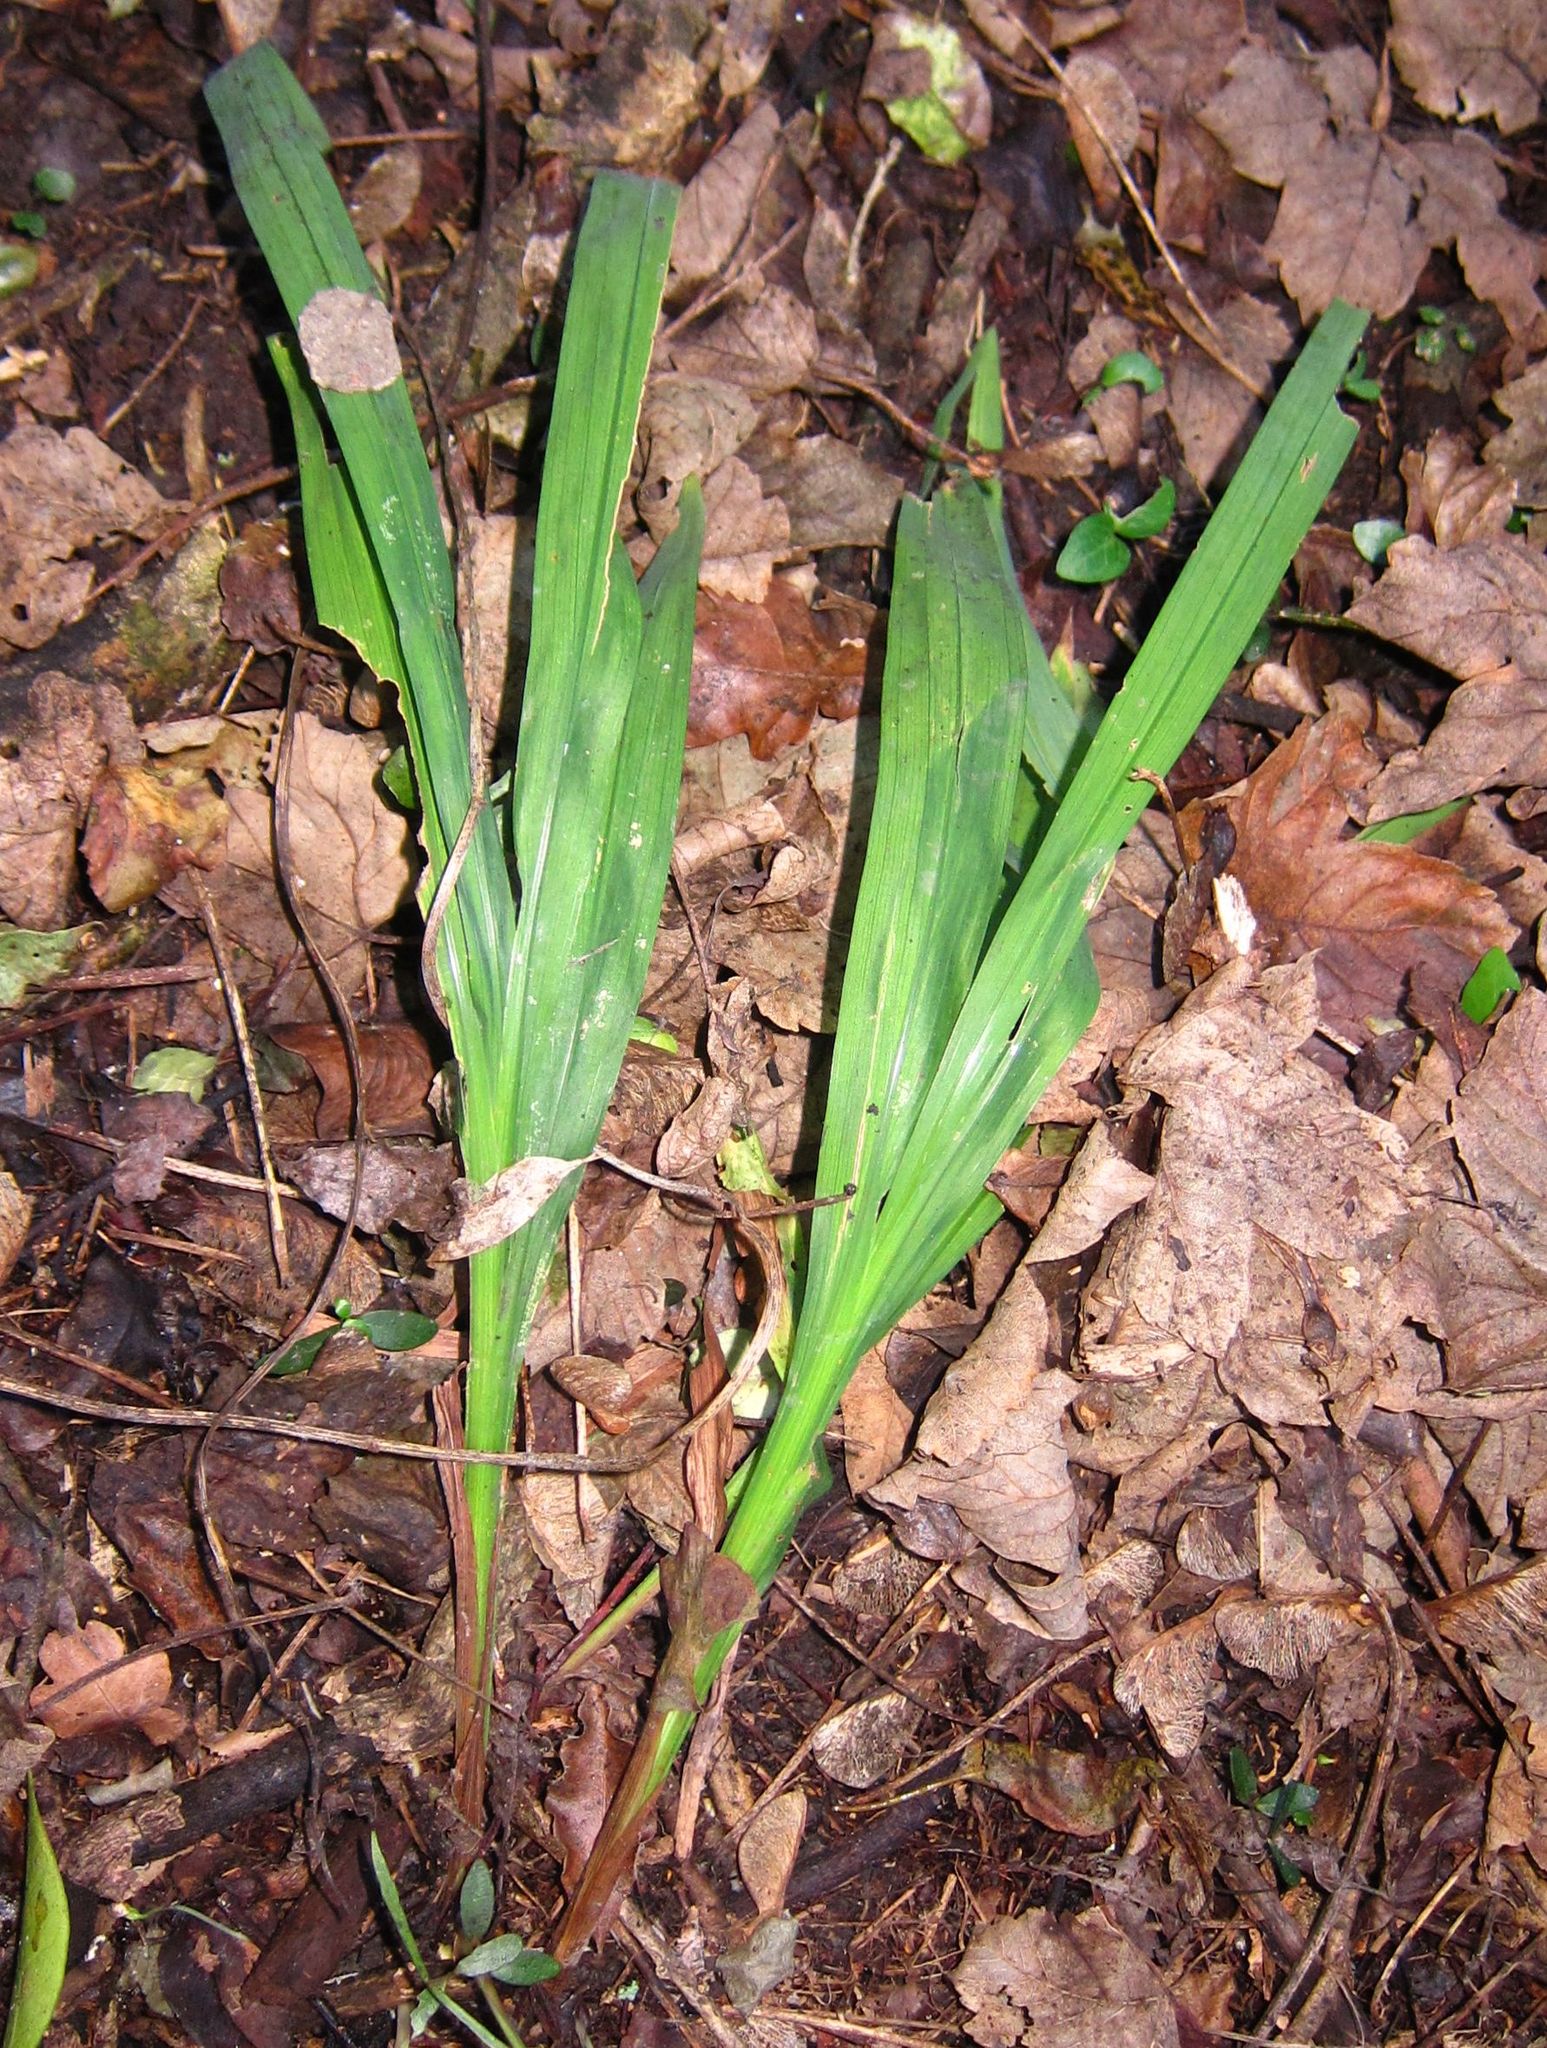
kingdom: Plantae
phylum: Tracheophyta
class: Liliopsida
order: Asparagales
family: Iridaceae
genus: Crocosmia
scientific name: Crocosmia crocosmiiflora
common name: Montbretia
